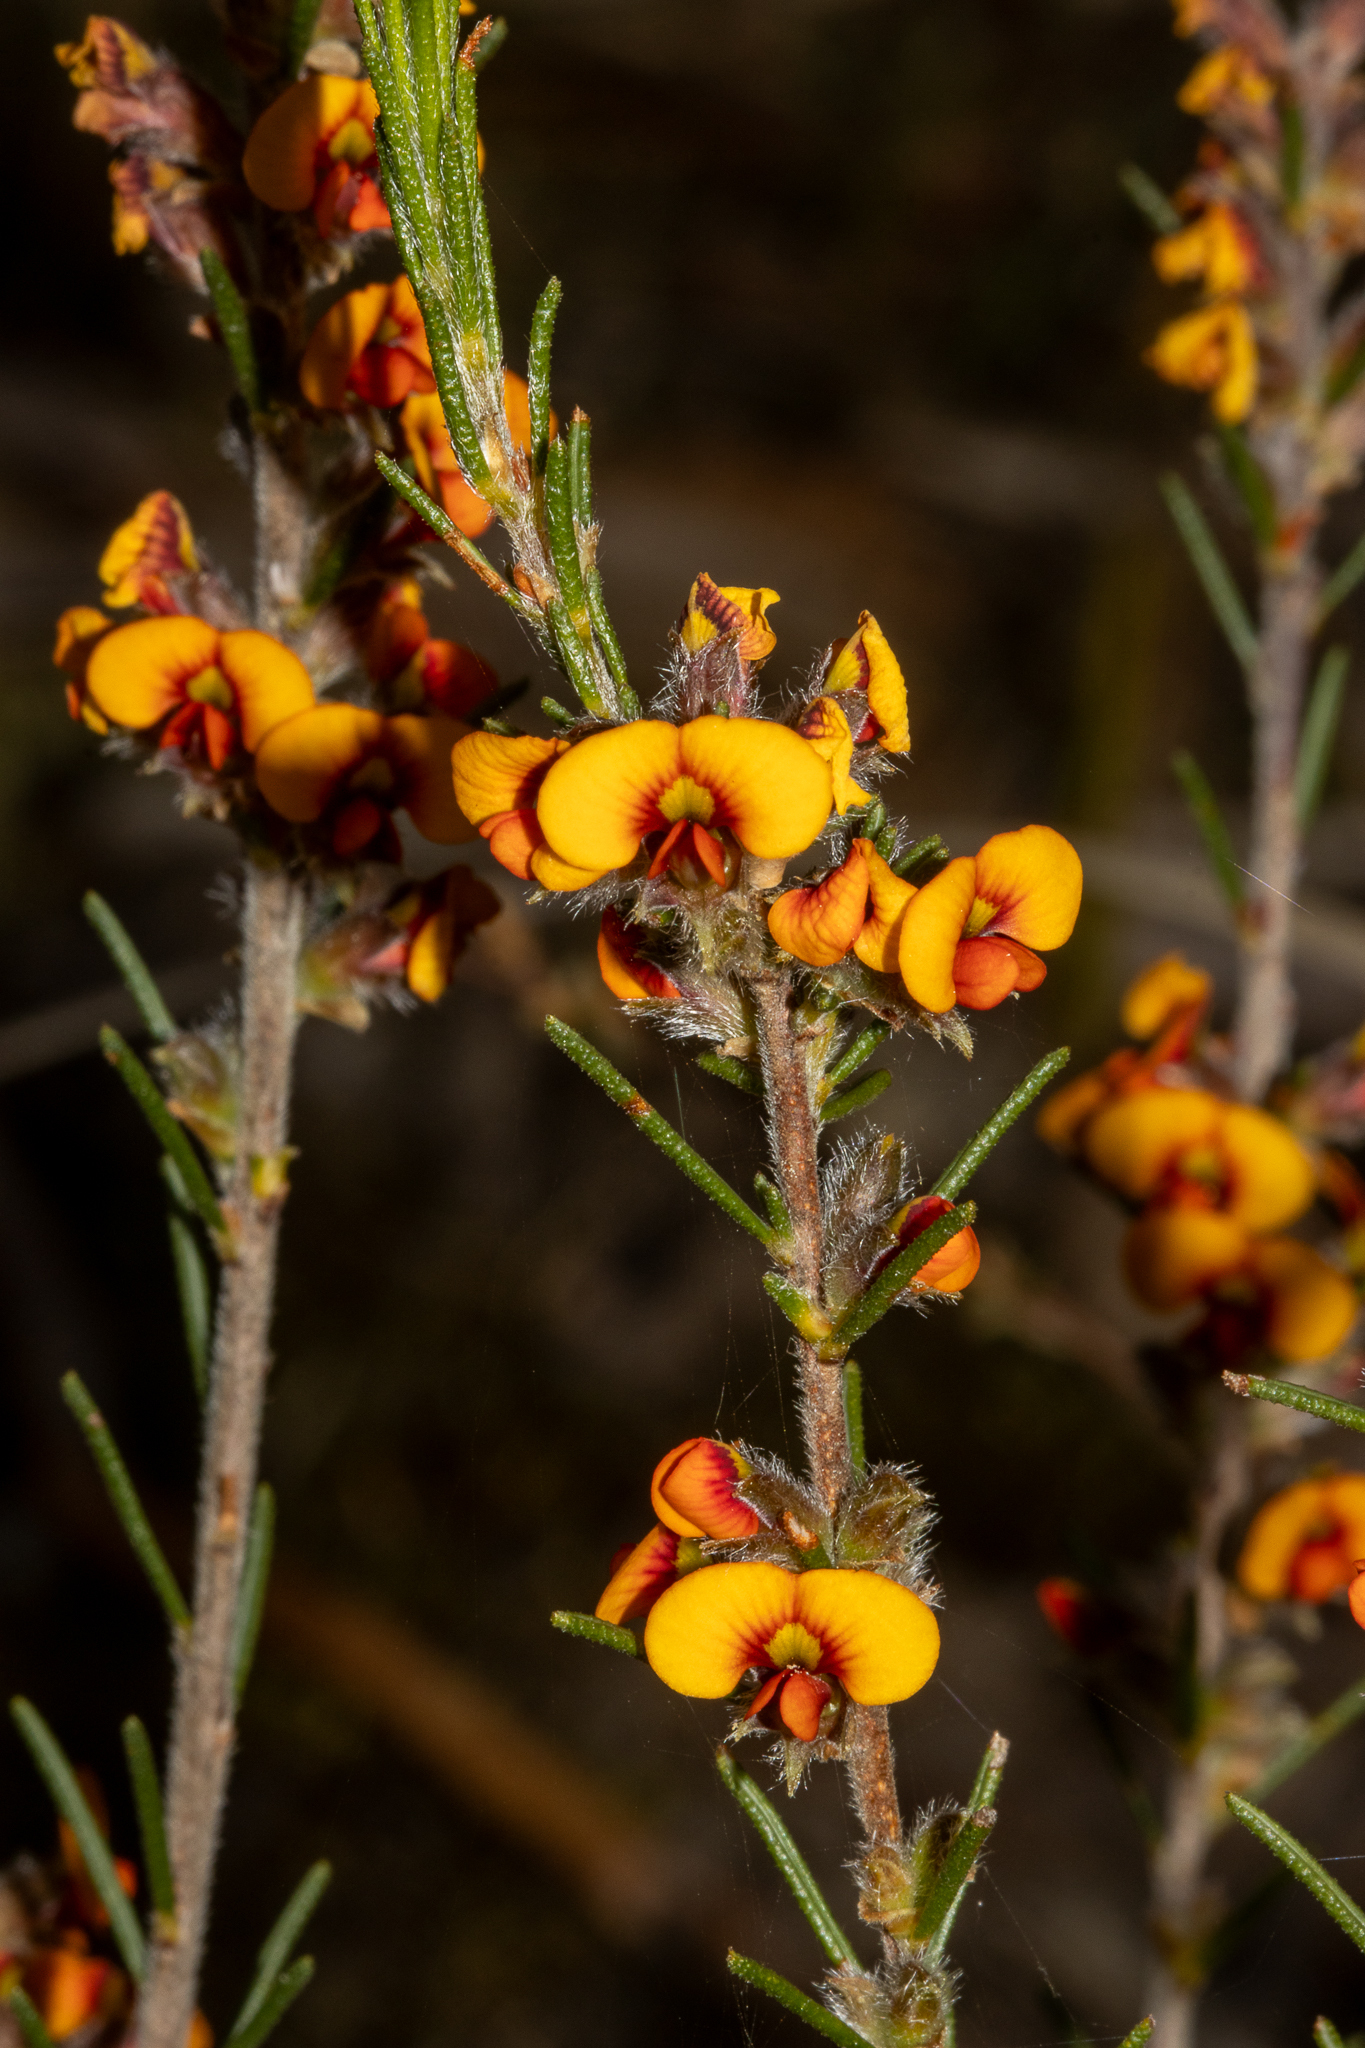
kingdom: Plantae
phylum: Tracheophyta
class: Magnoliopsida
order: Fabales
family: Fabaceae
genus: Dillwynia
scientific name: Dillwynia sericea
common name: Showy parrot-pea
